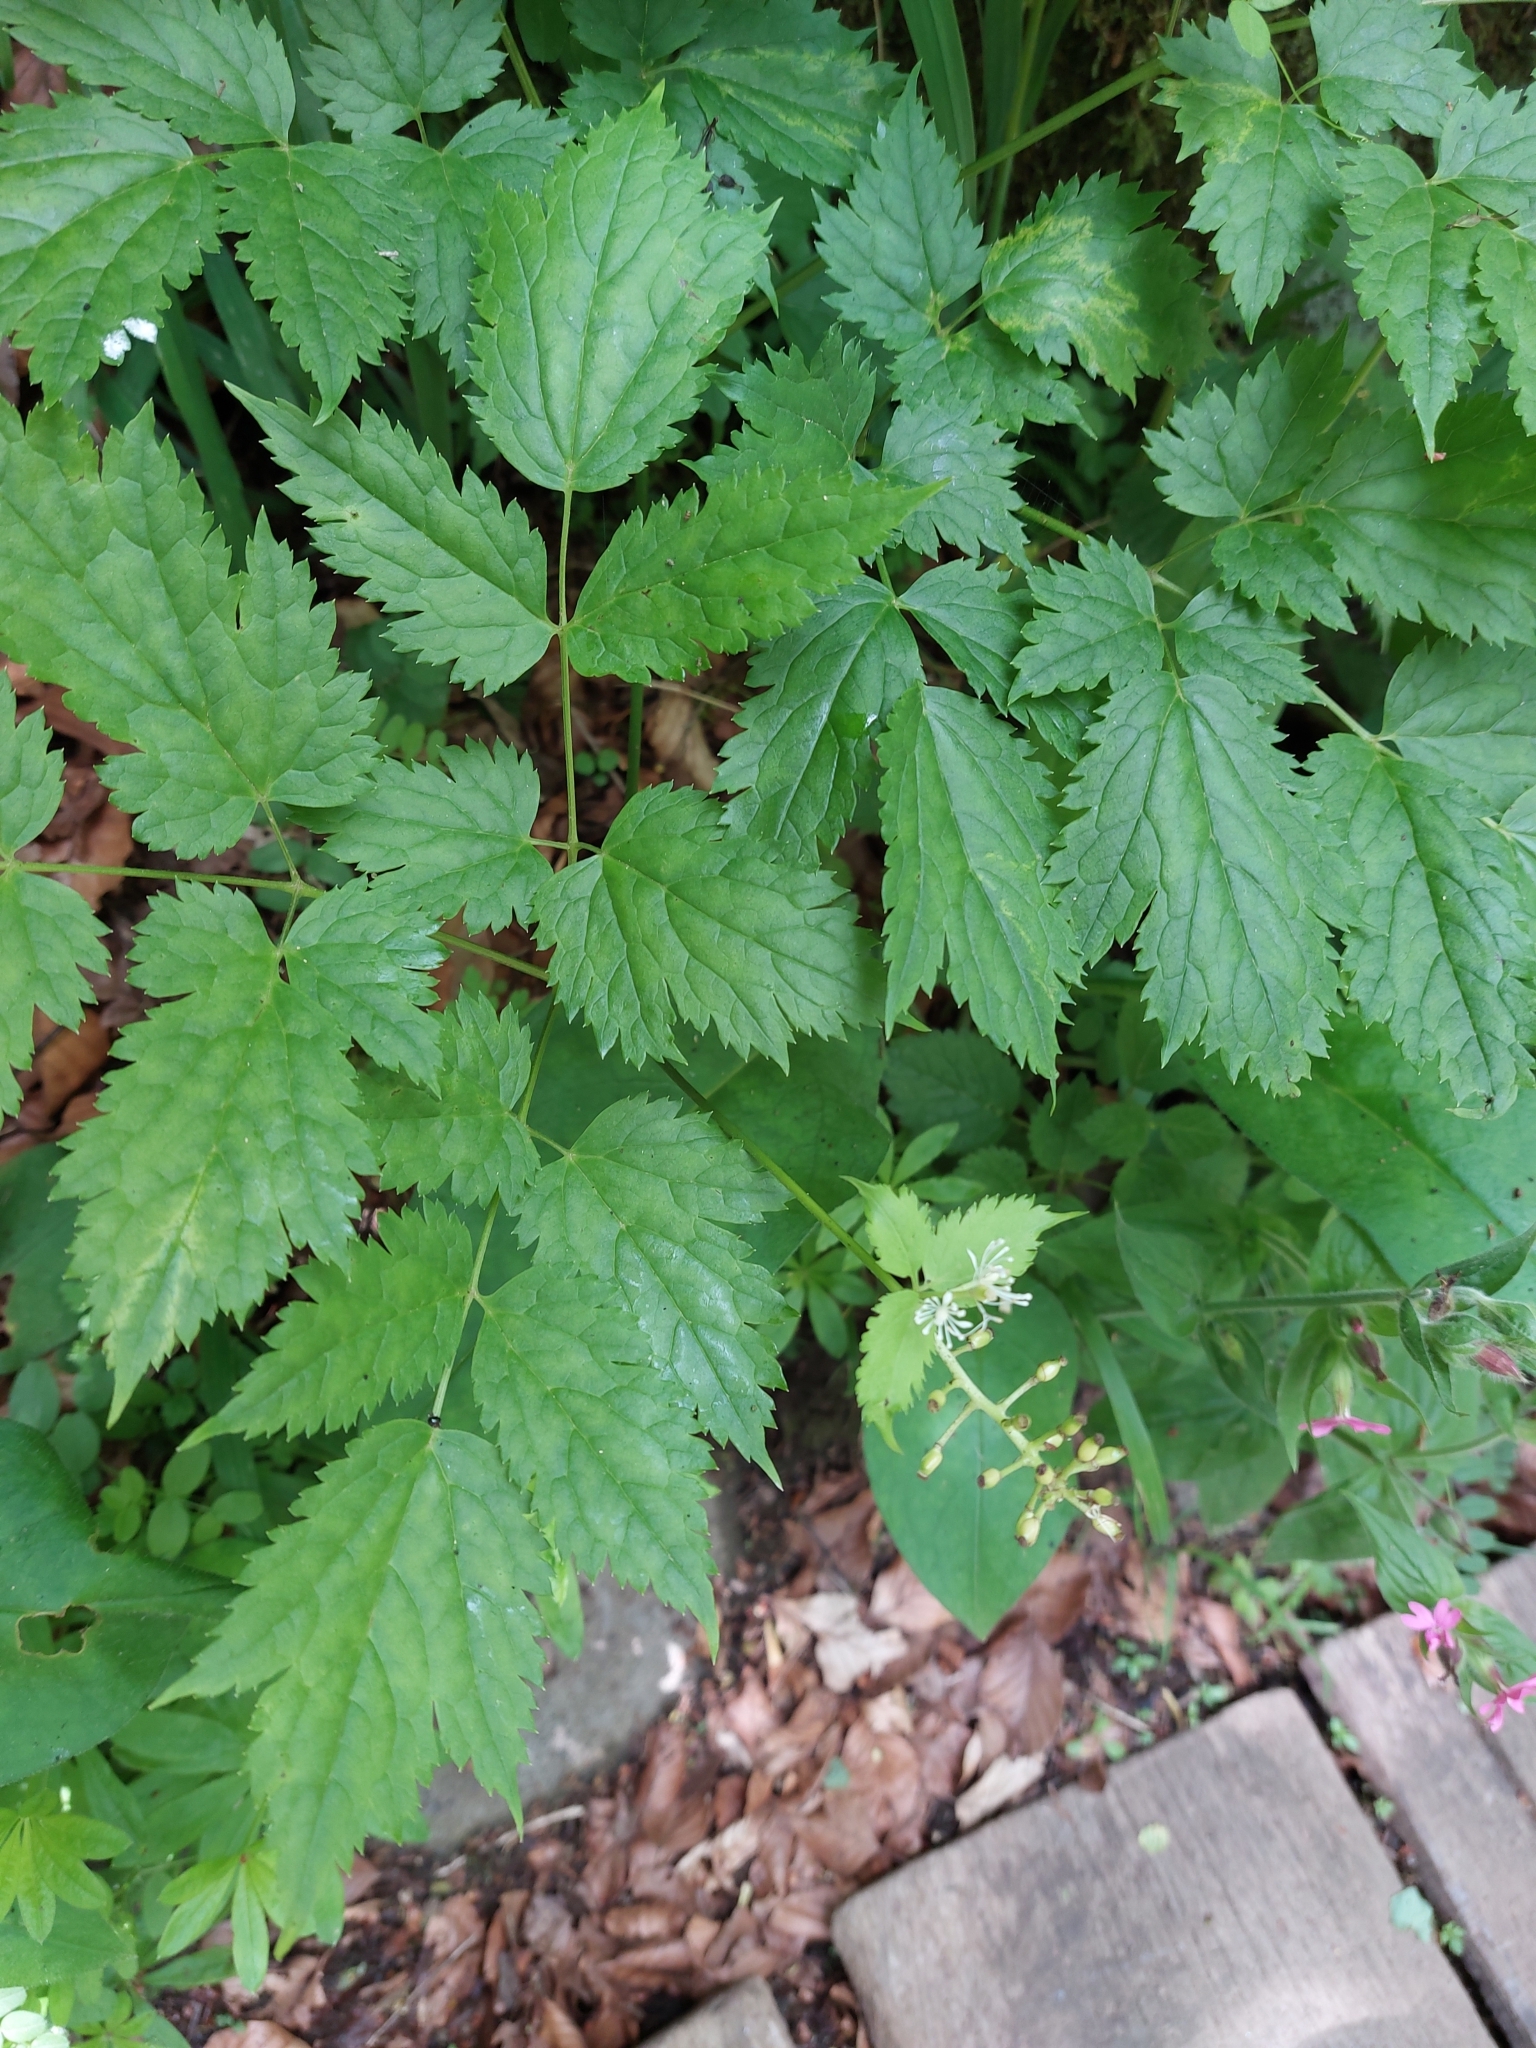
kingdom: Plantae
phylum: Tracheophyta
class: Magnoliopsida
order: Ranunculales
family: Ranunculaceae
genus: Actaea
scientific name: Actaea spicata
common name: Baneberry
